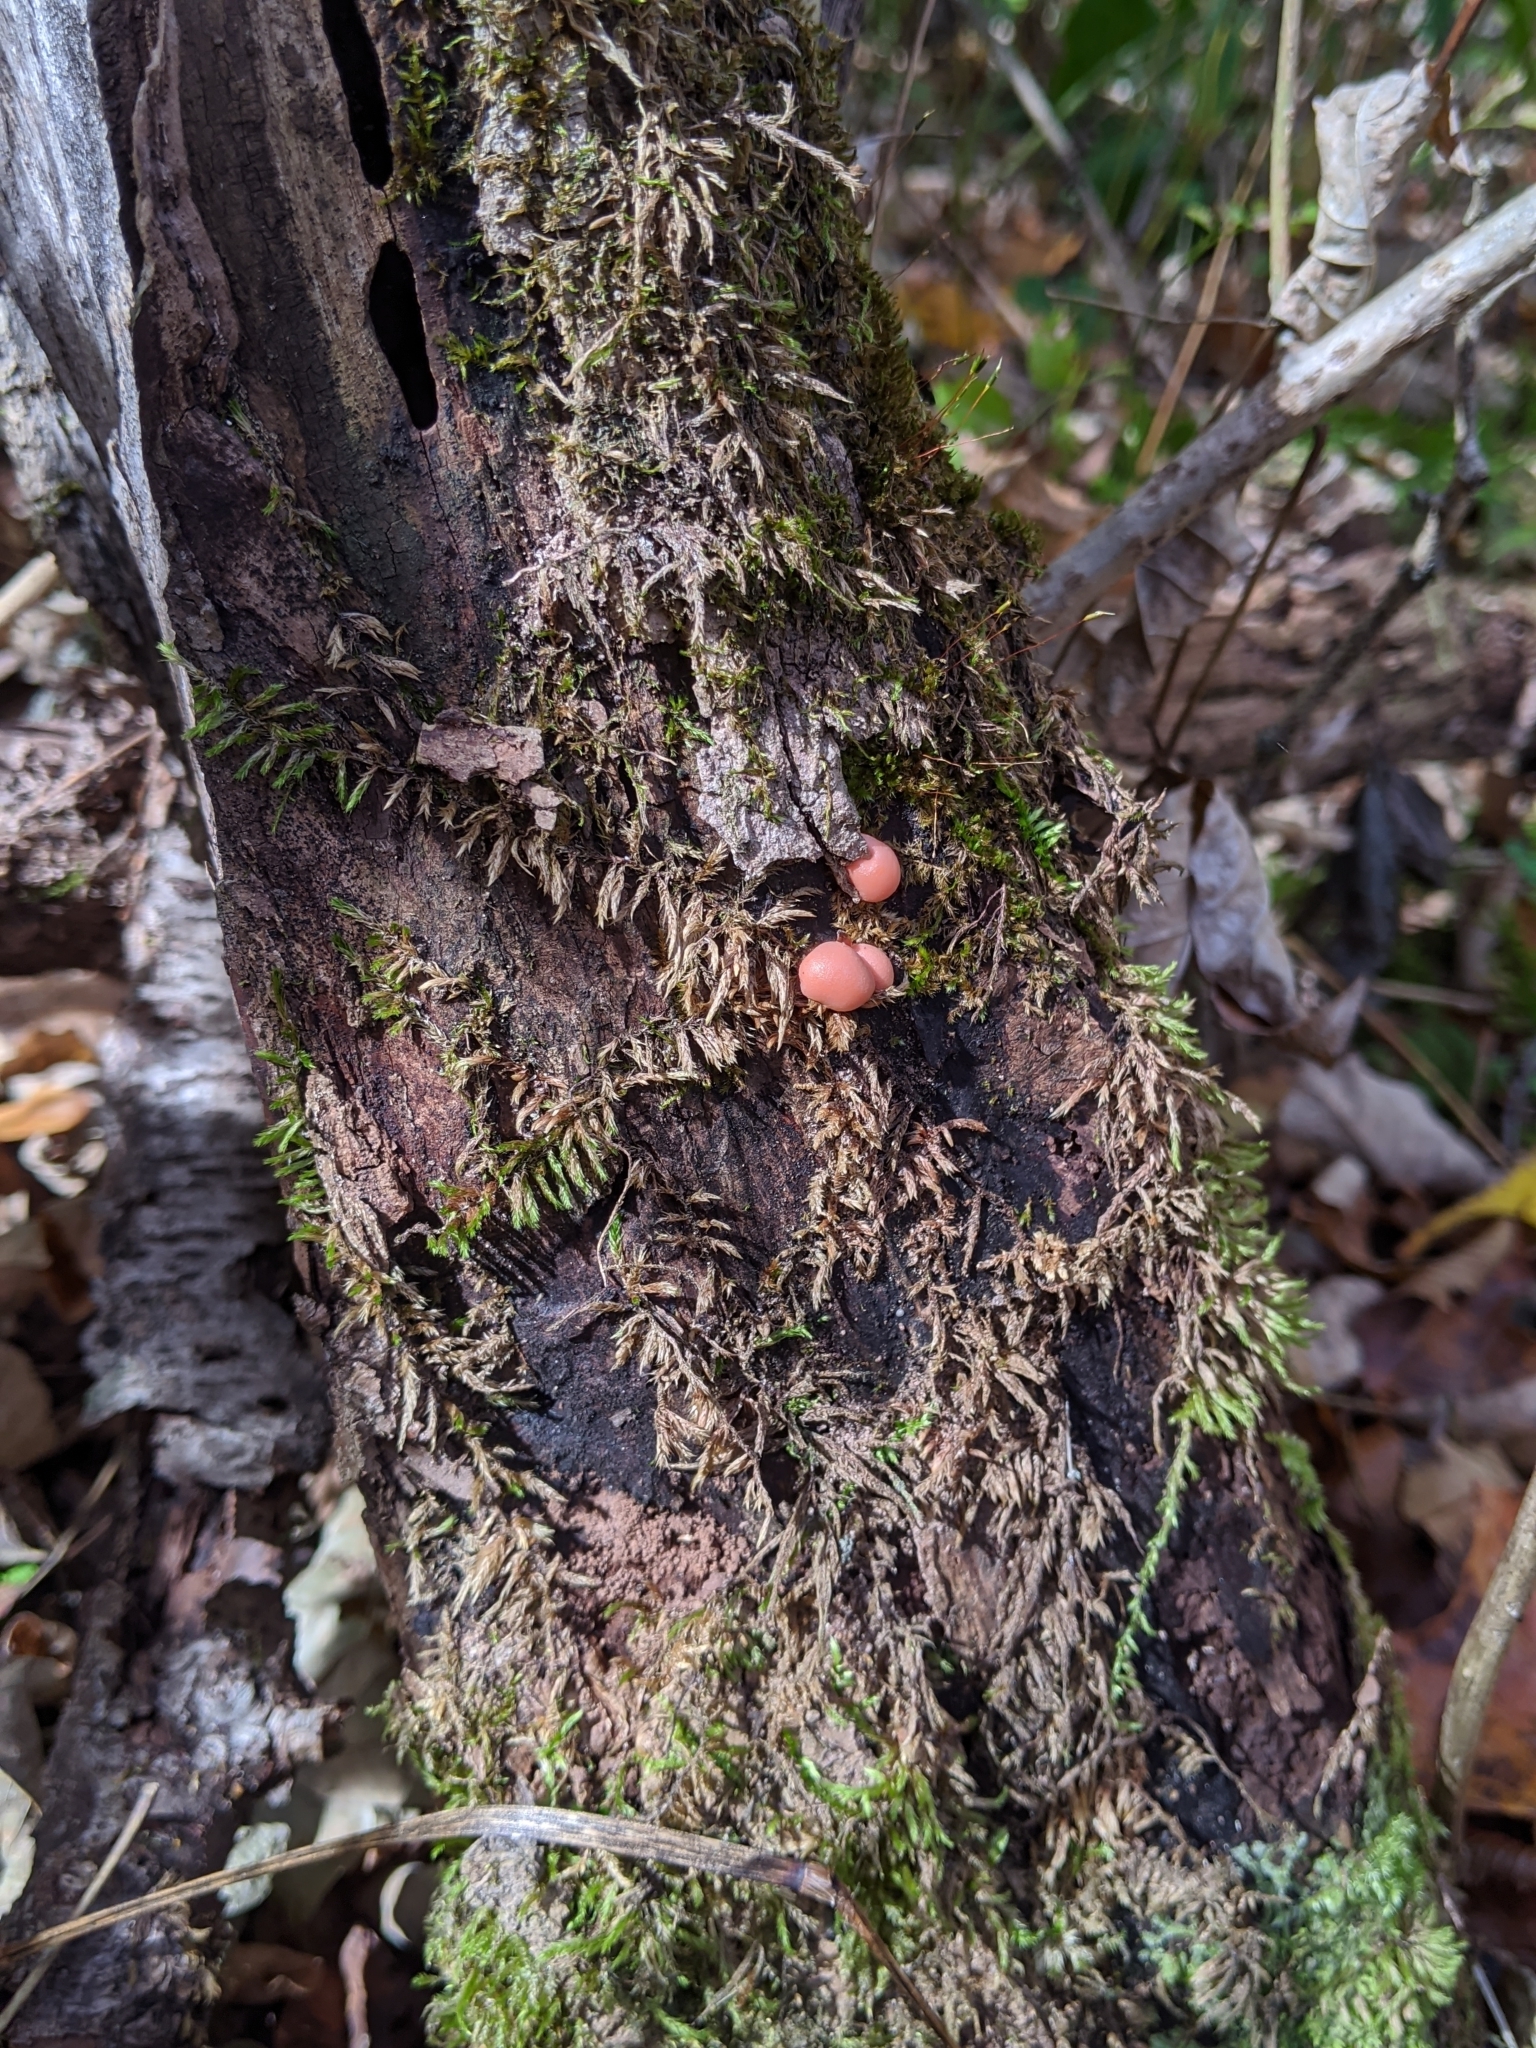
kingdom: Protozoa
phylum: Mycetozoa
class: Myxomycetes
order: Cribrariales
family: Tubiferaceae
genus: Lycogala
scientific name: Lycogala epidendrum
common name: Wolf's milk
